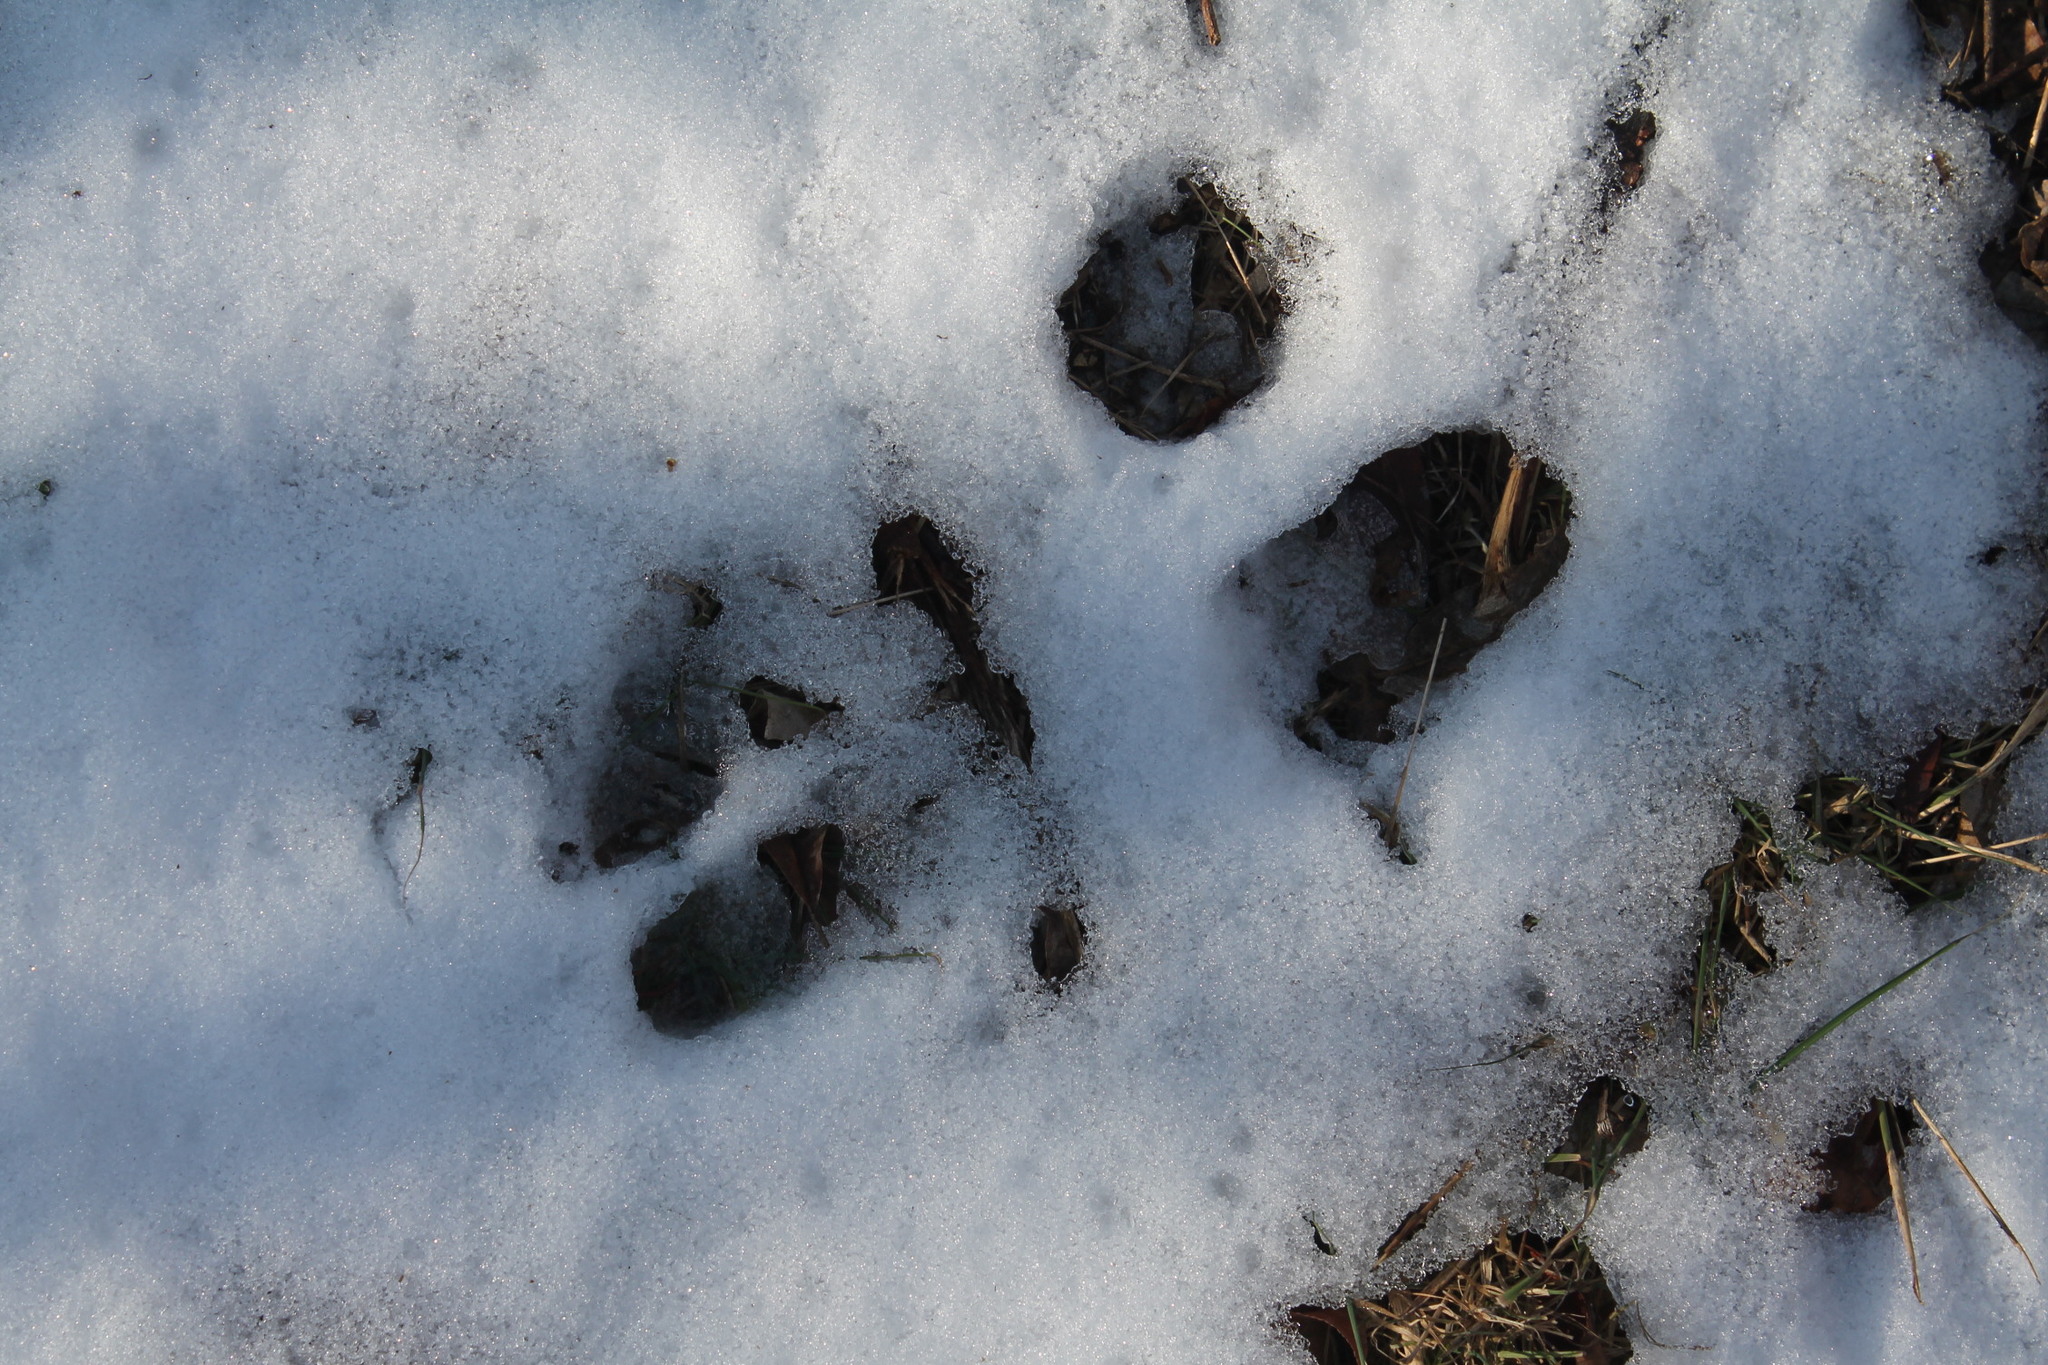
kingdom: Animalia
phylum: Chordata
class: Mammalia
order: Lagomorpha
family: Leporidae
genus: Sylvilagus
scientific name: Sylvilagus floridanus
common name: Eastern cottontail
